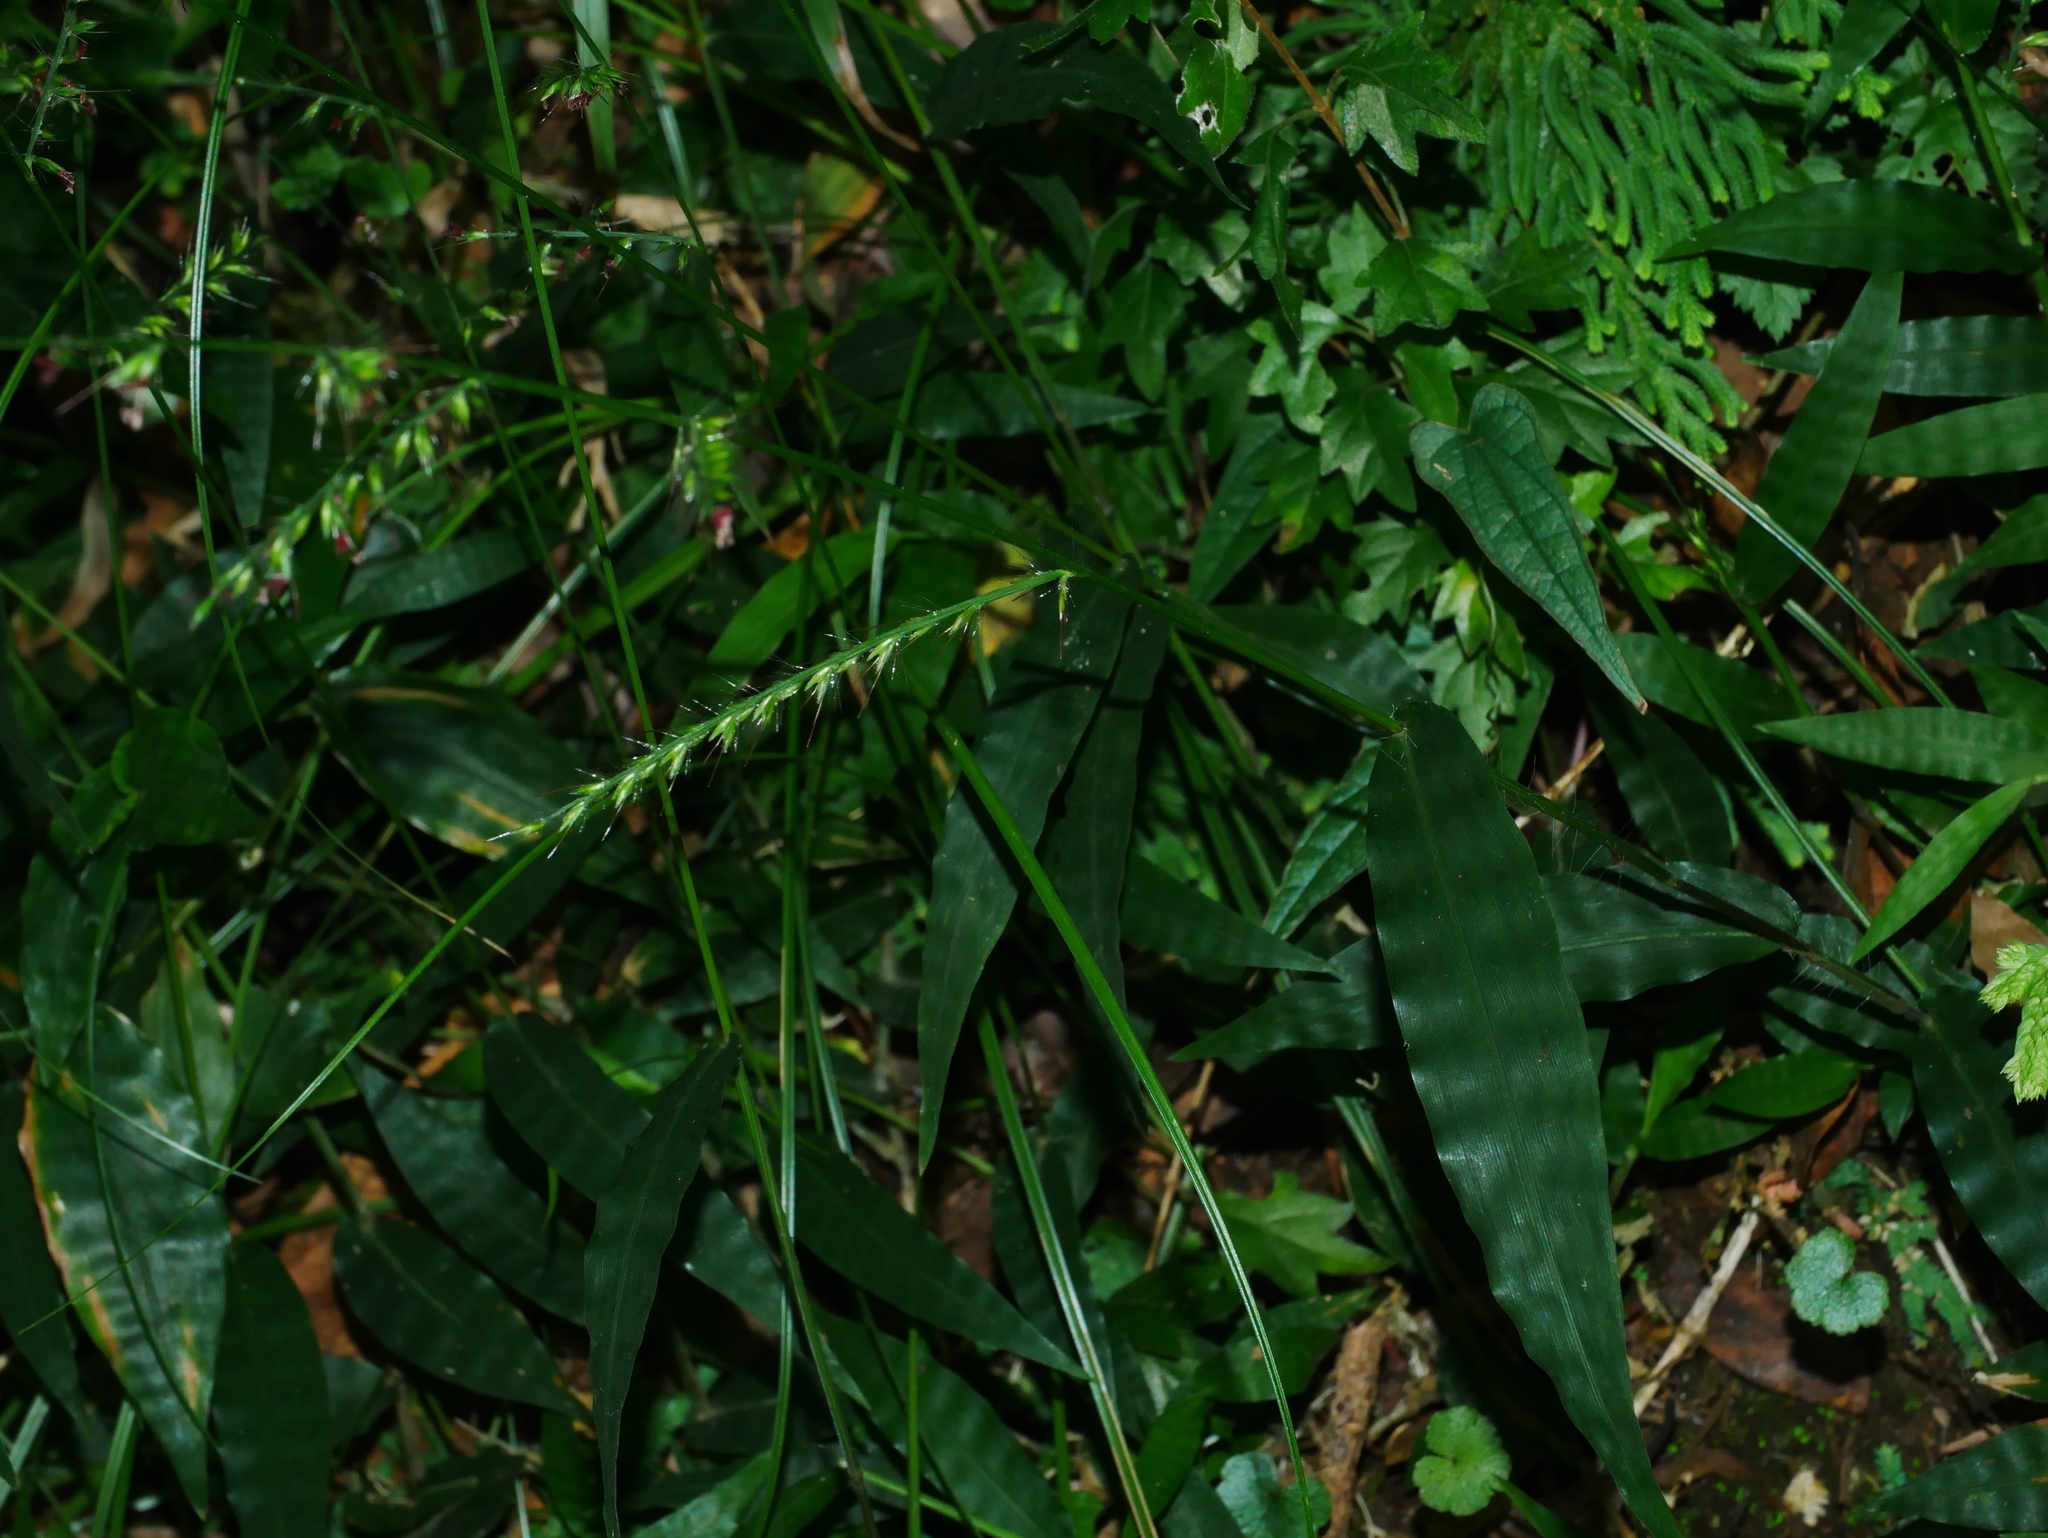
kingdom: Plantae
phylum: Tracheophyta
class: Liliopsida
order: Poales
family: Poaceae
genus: Oplismenus
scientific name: Oplismenus compositus
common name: Running mountain grass
